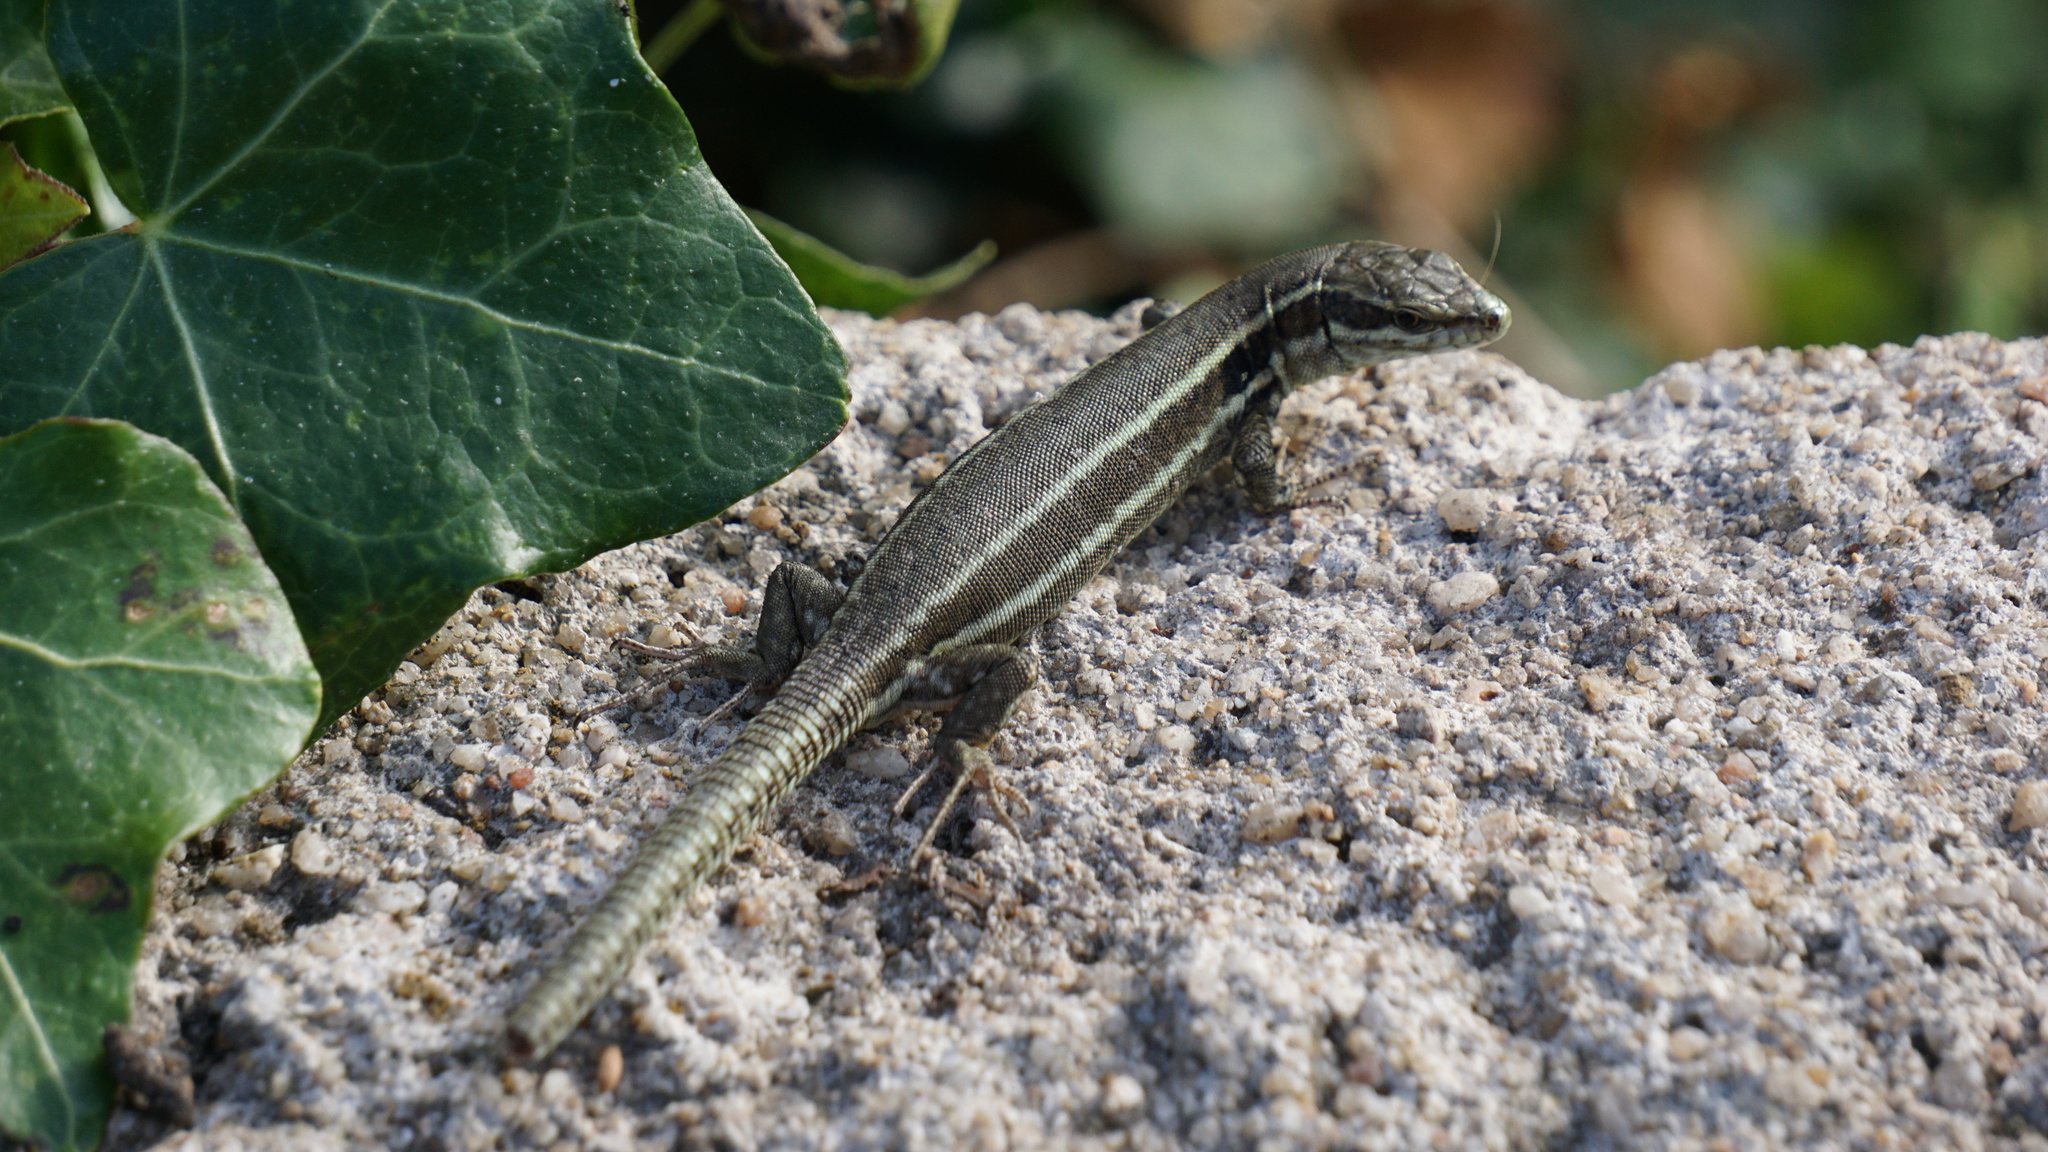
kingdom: Animalia
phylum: Chordata
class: Squamata
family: Lacertidae
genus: Podarcis
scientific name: Podarcis muralis
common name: Common wall lizard
